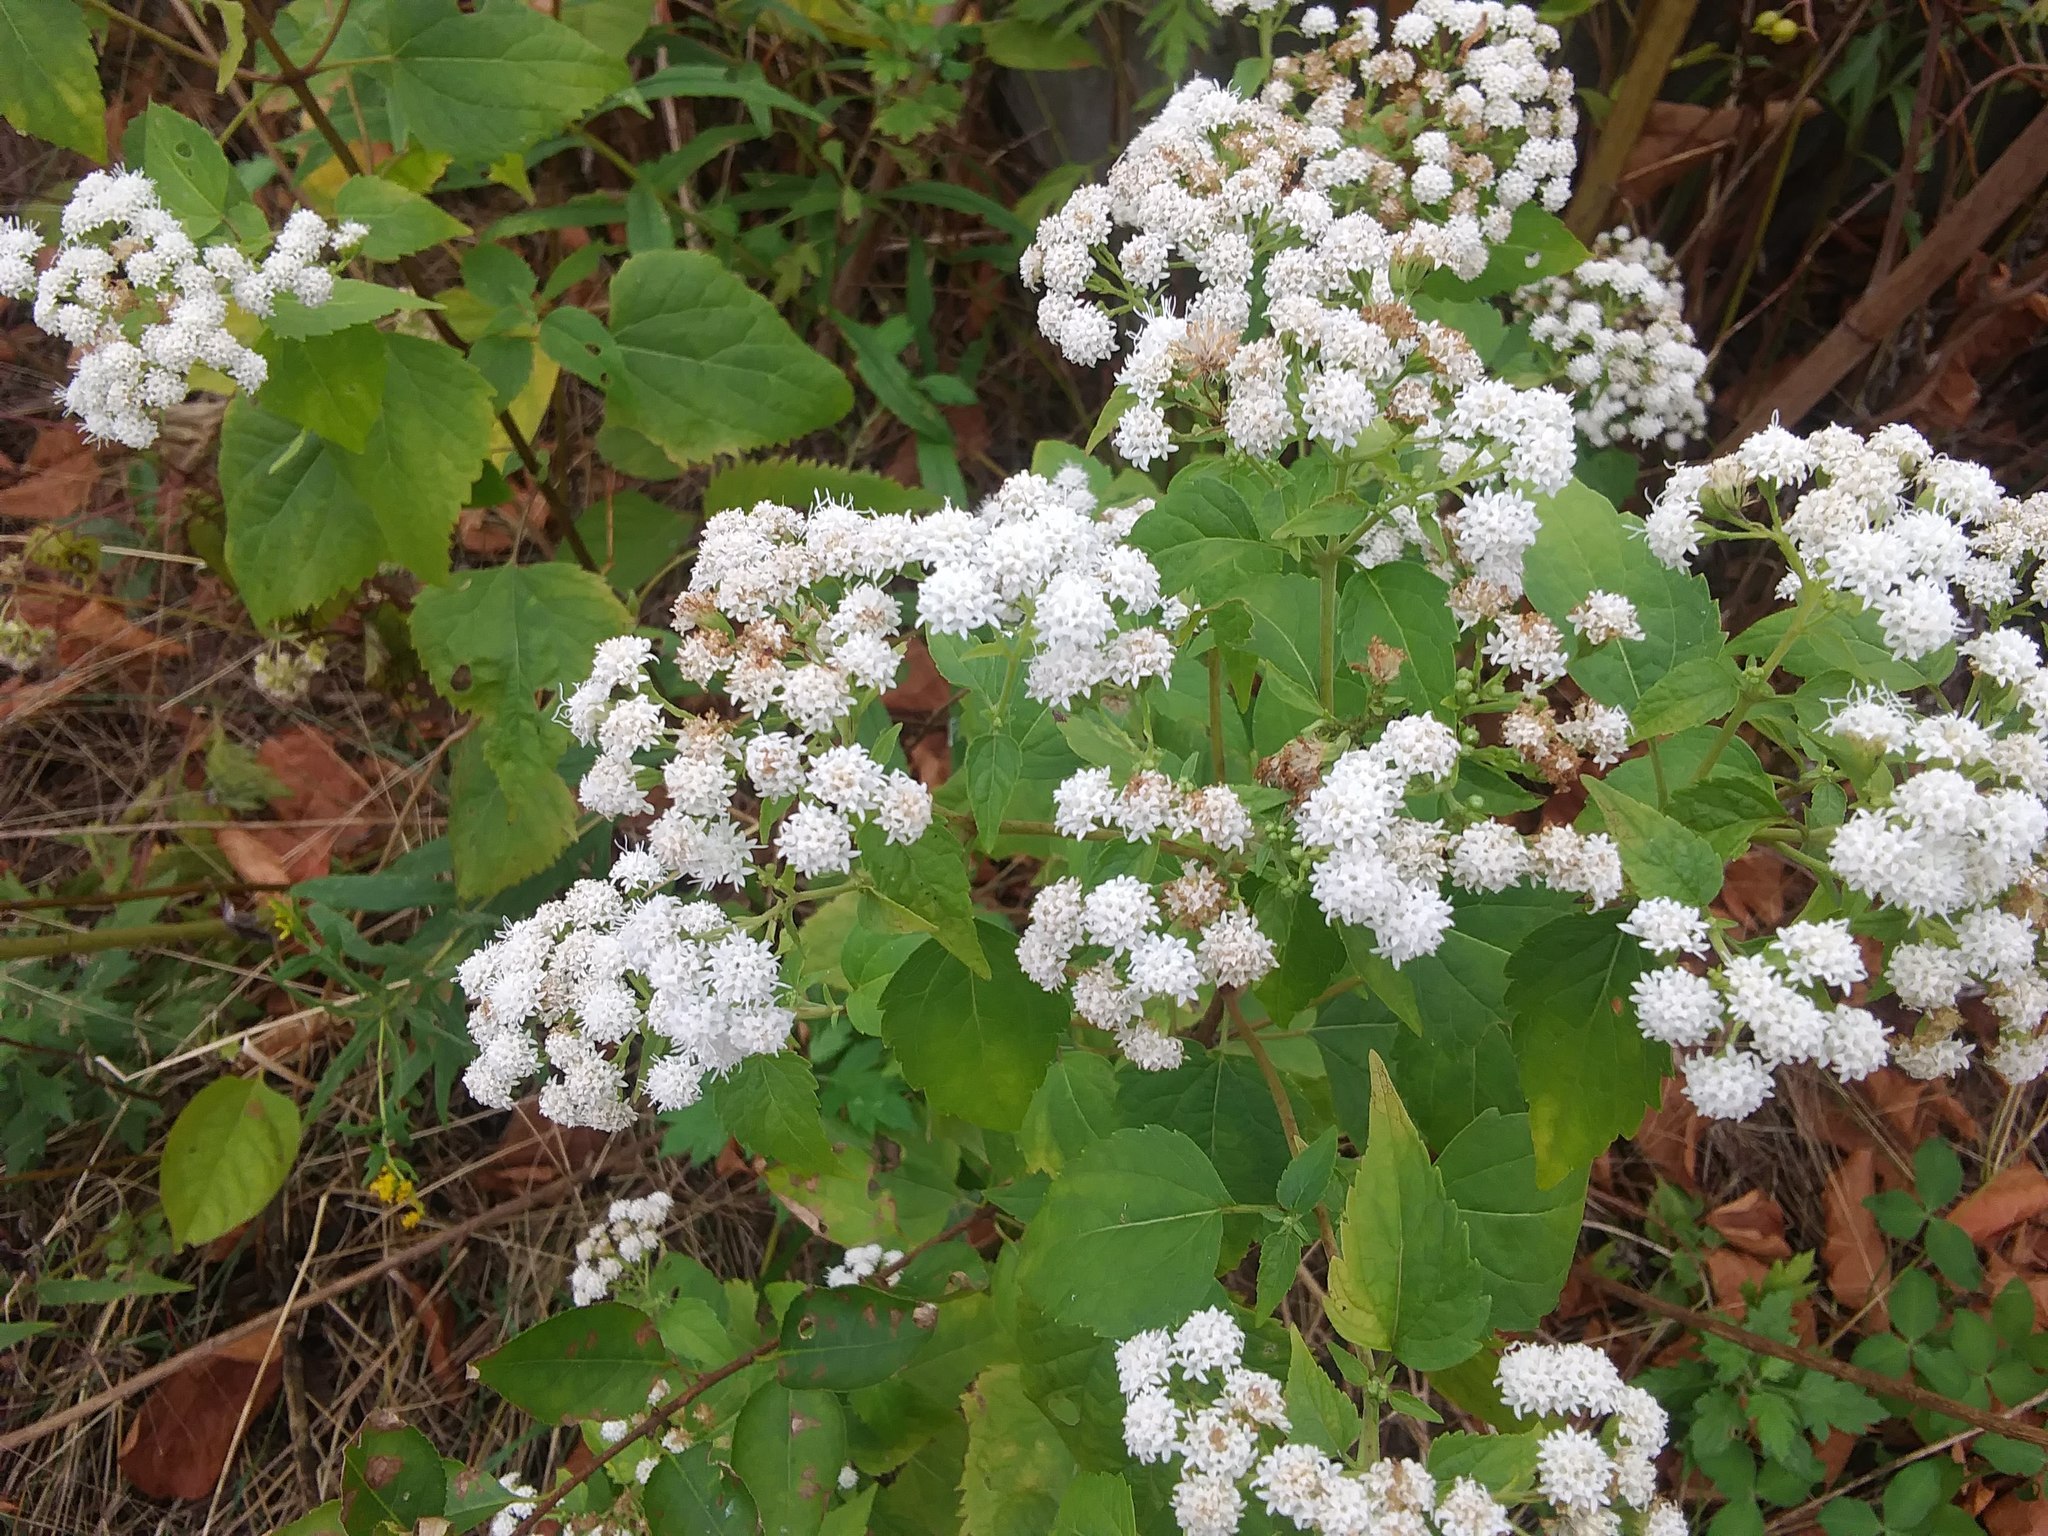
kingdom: Plantae
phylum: Tracheophyta
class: Magnoliopsida
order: Asterales
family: Asteraceae
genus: Ageratina
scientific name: Ageratina altissima
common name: White snakeroot
